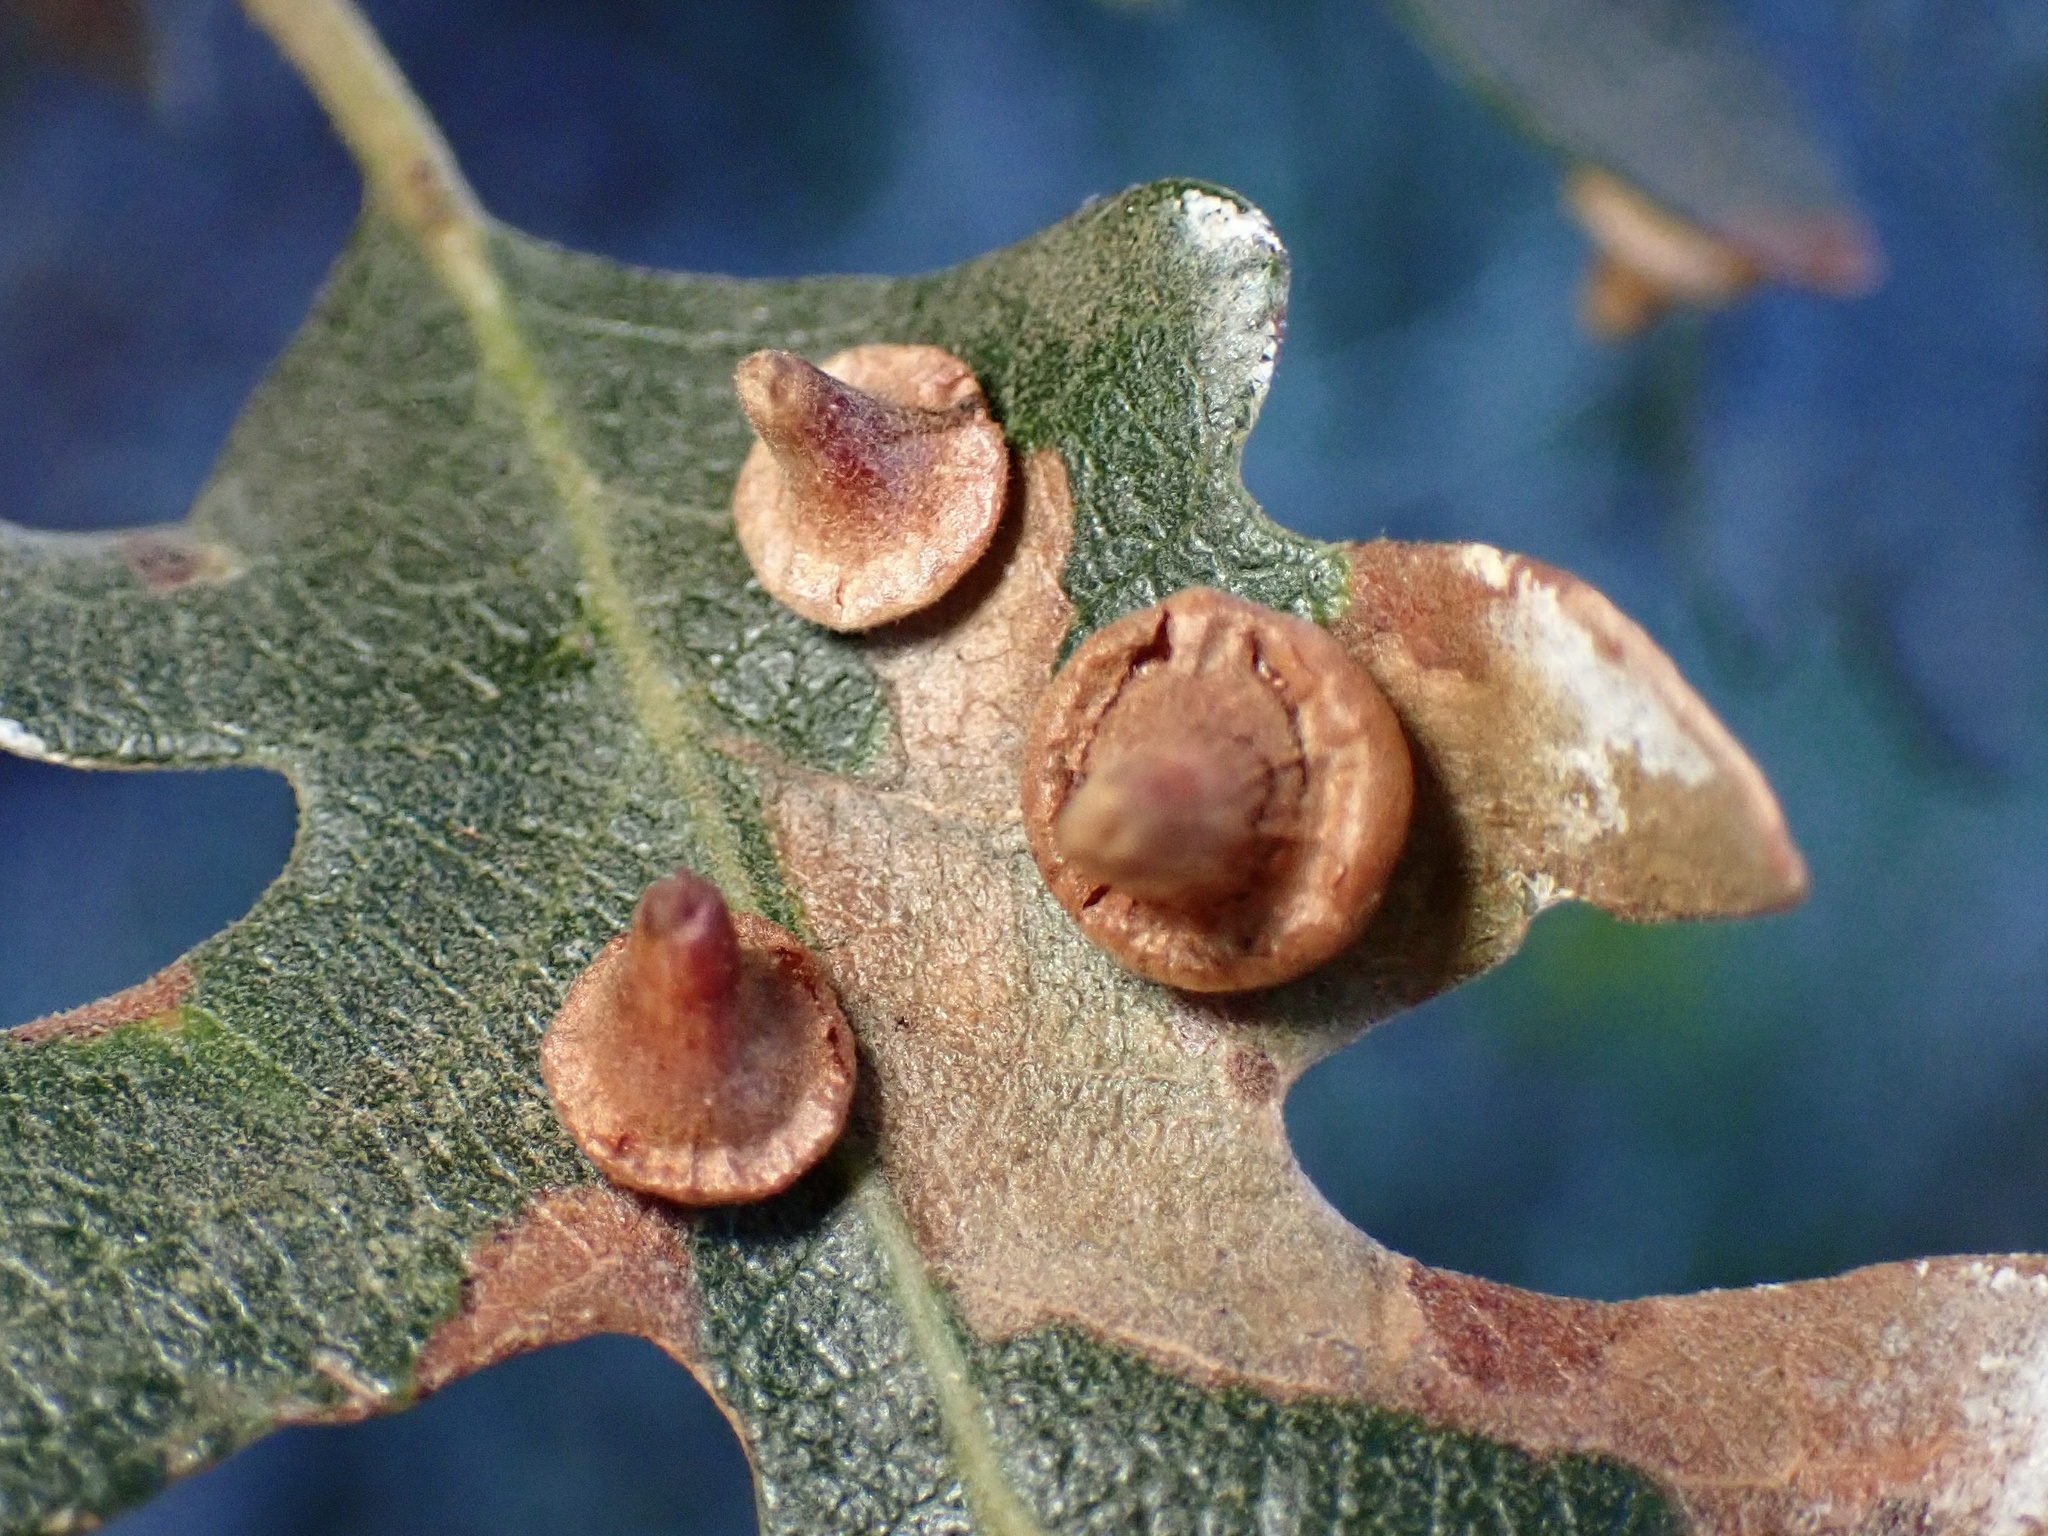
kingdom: Animalia
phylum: Arthropoda
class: Insecta
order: Hymenoptera
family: Cynipidae
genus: Andricus
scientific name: Andricus
